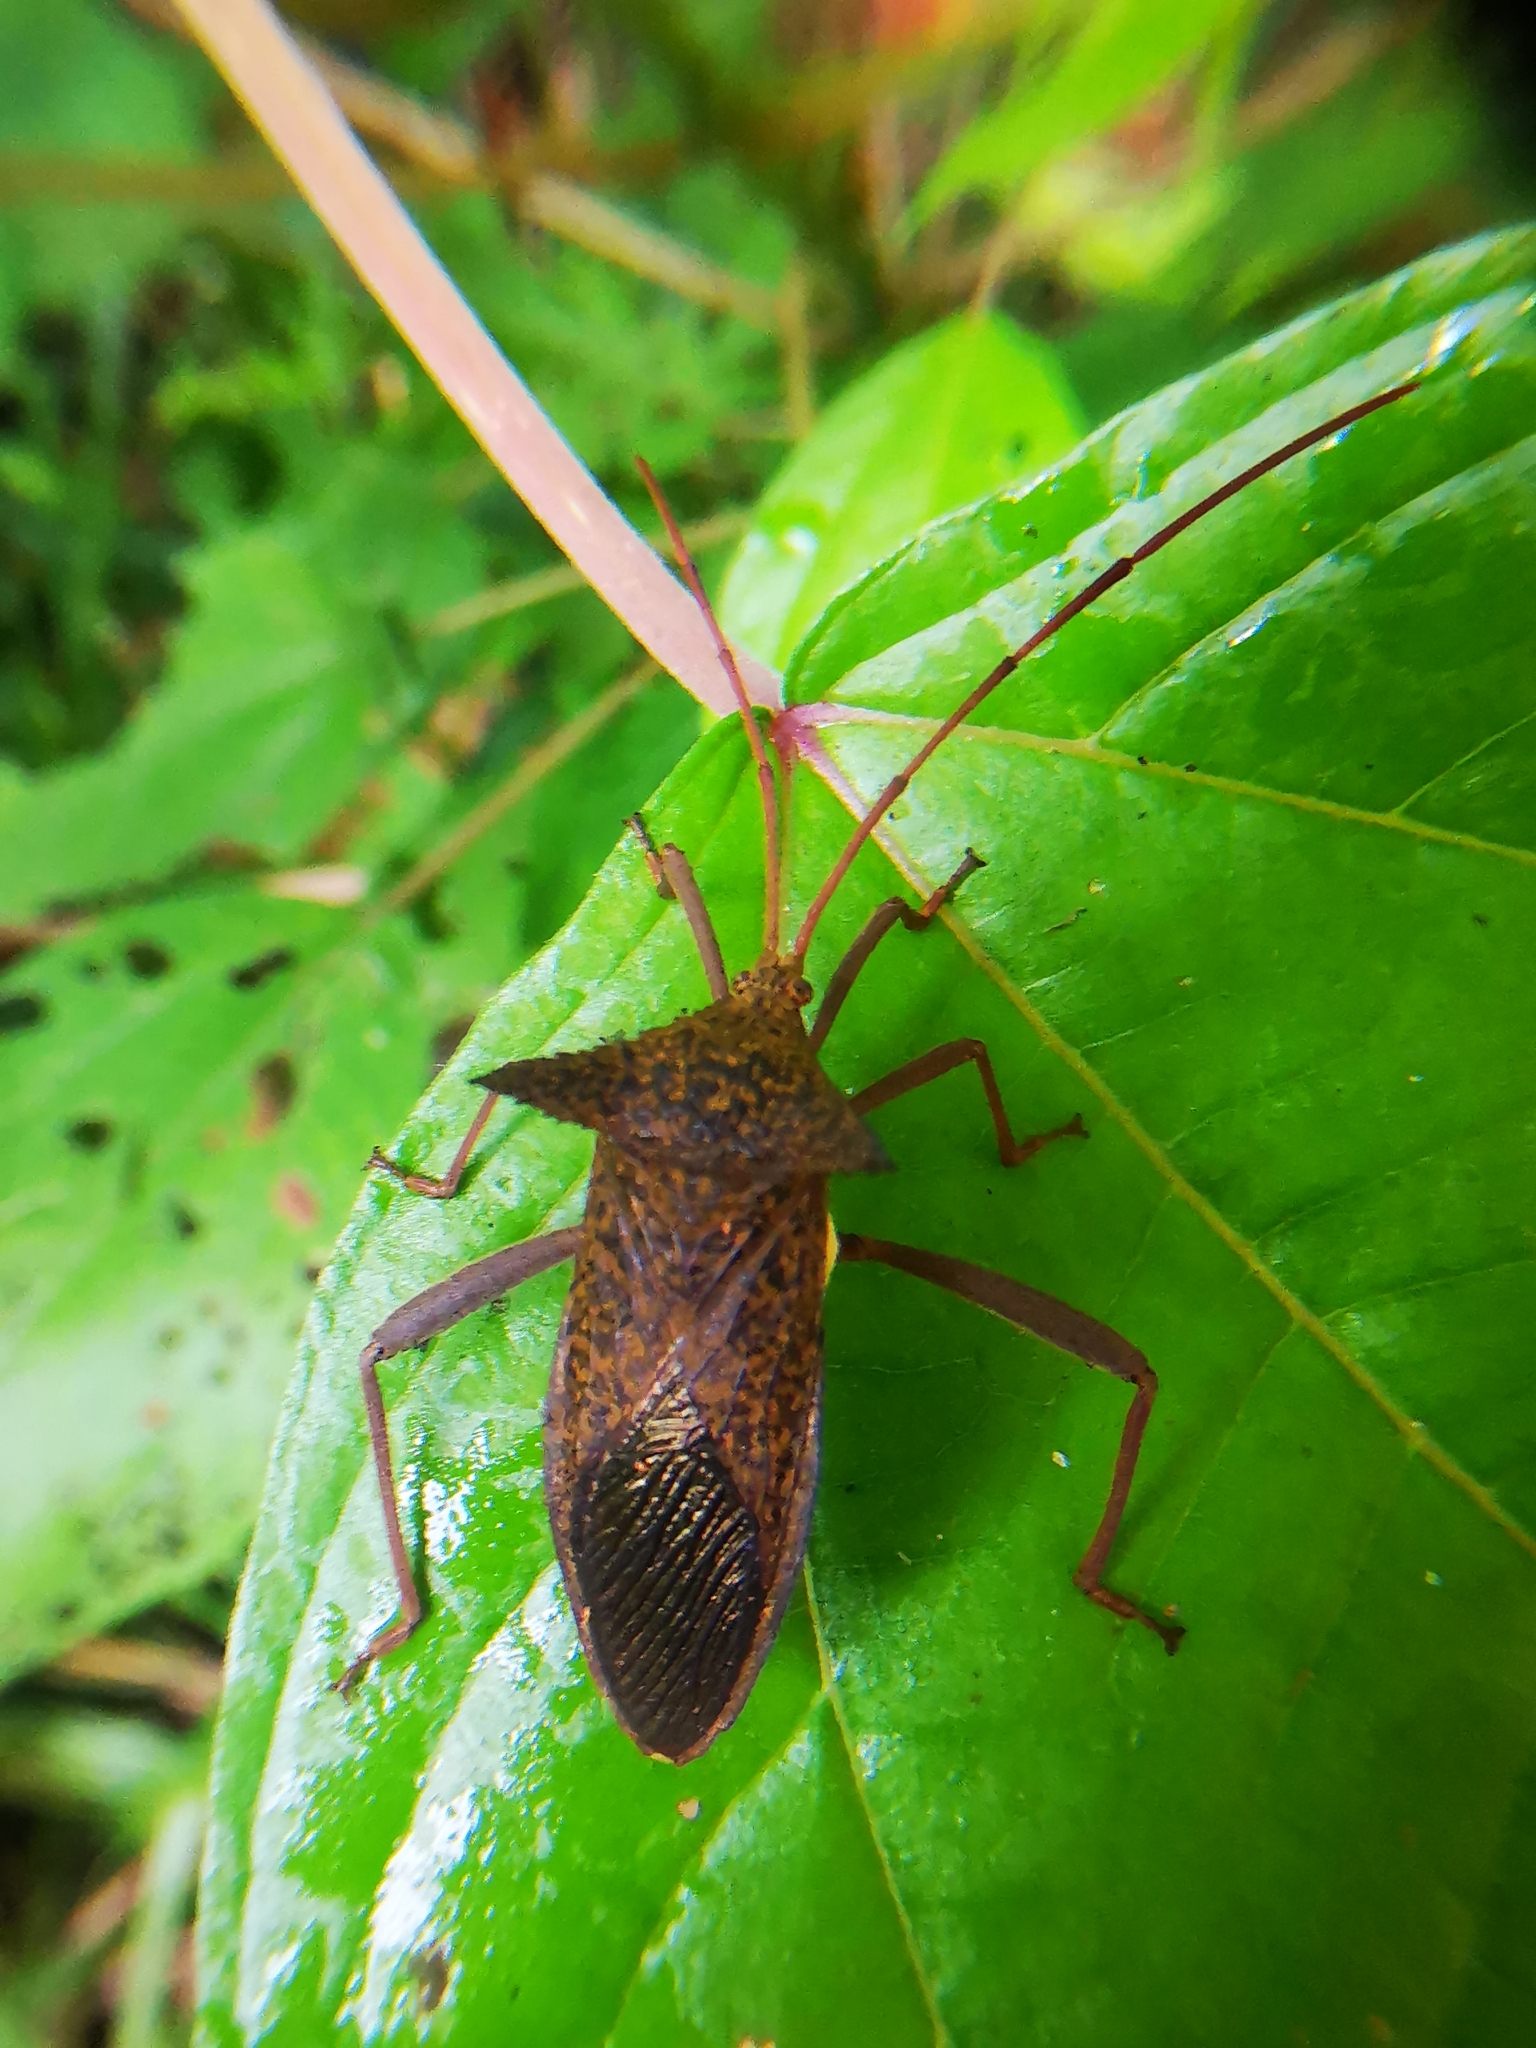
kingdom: Animalia
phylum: Arthropoda
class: Insecta
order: Hemiptera
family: Coreidae
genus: Aspilosterna
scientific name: Aspilosterna albovittata
